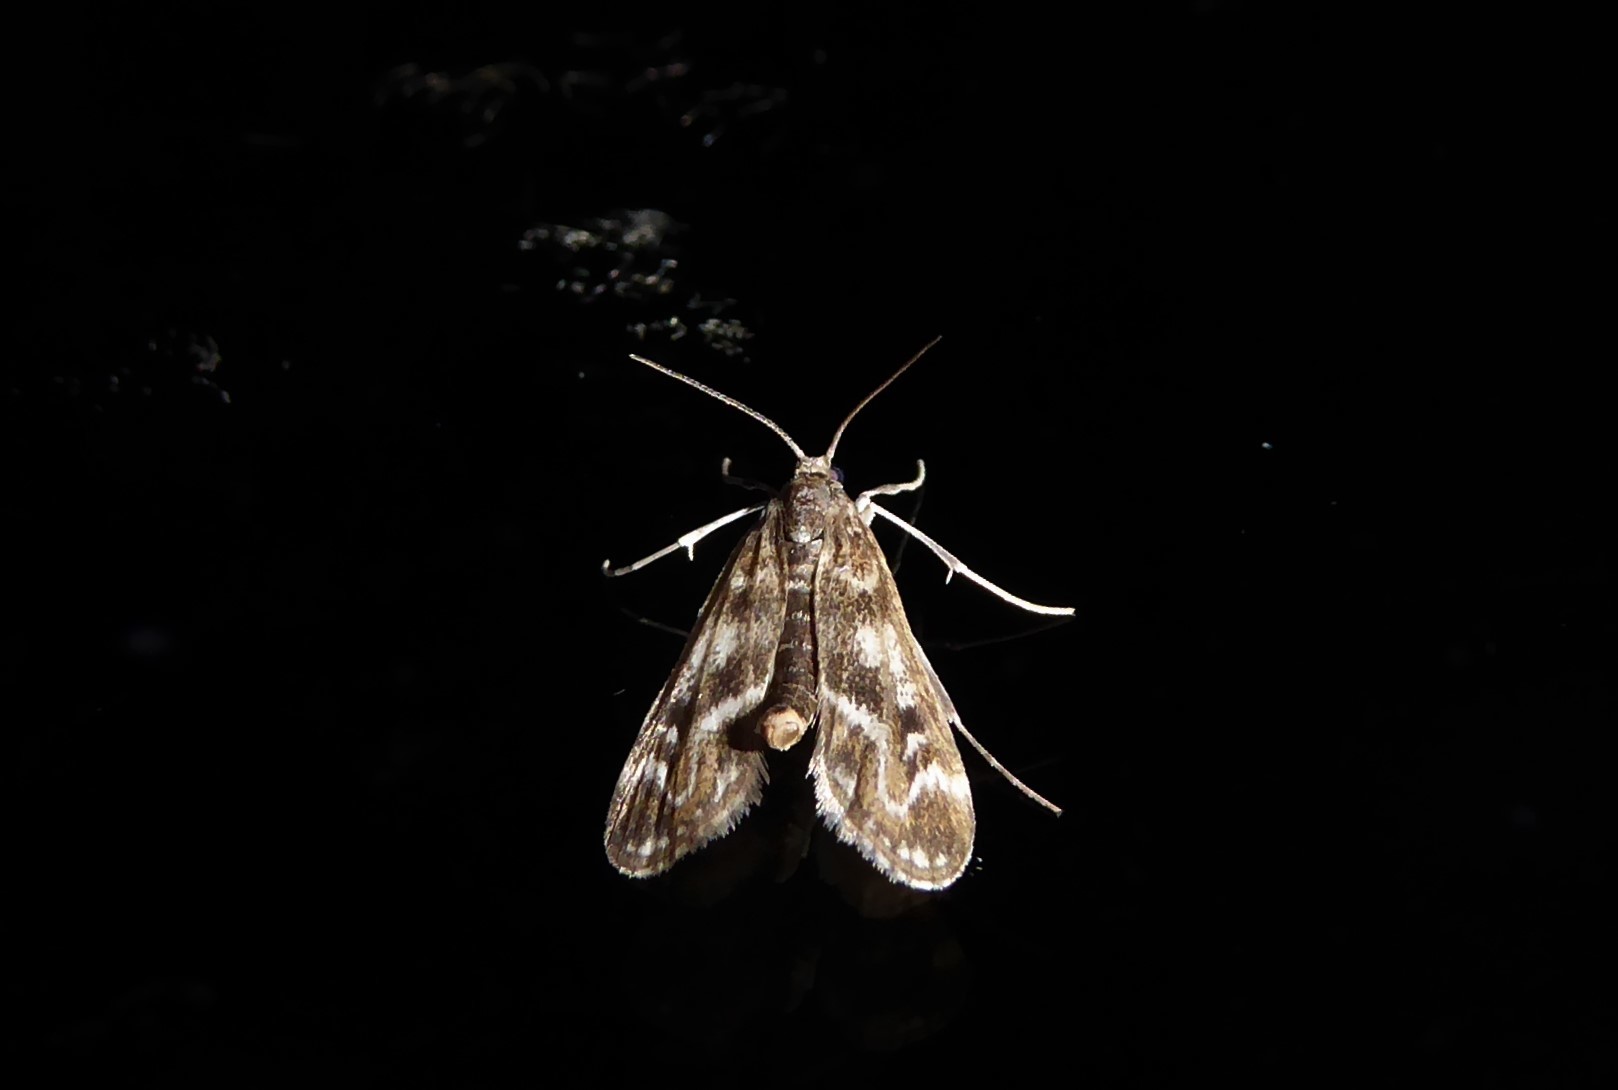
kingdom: Animalia
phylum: Arthropoda
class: Insecta
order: Lepidoptera
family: Crambidae
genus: Hygraula
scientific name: Hygraula nitens
